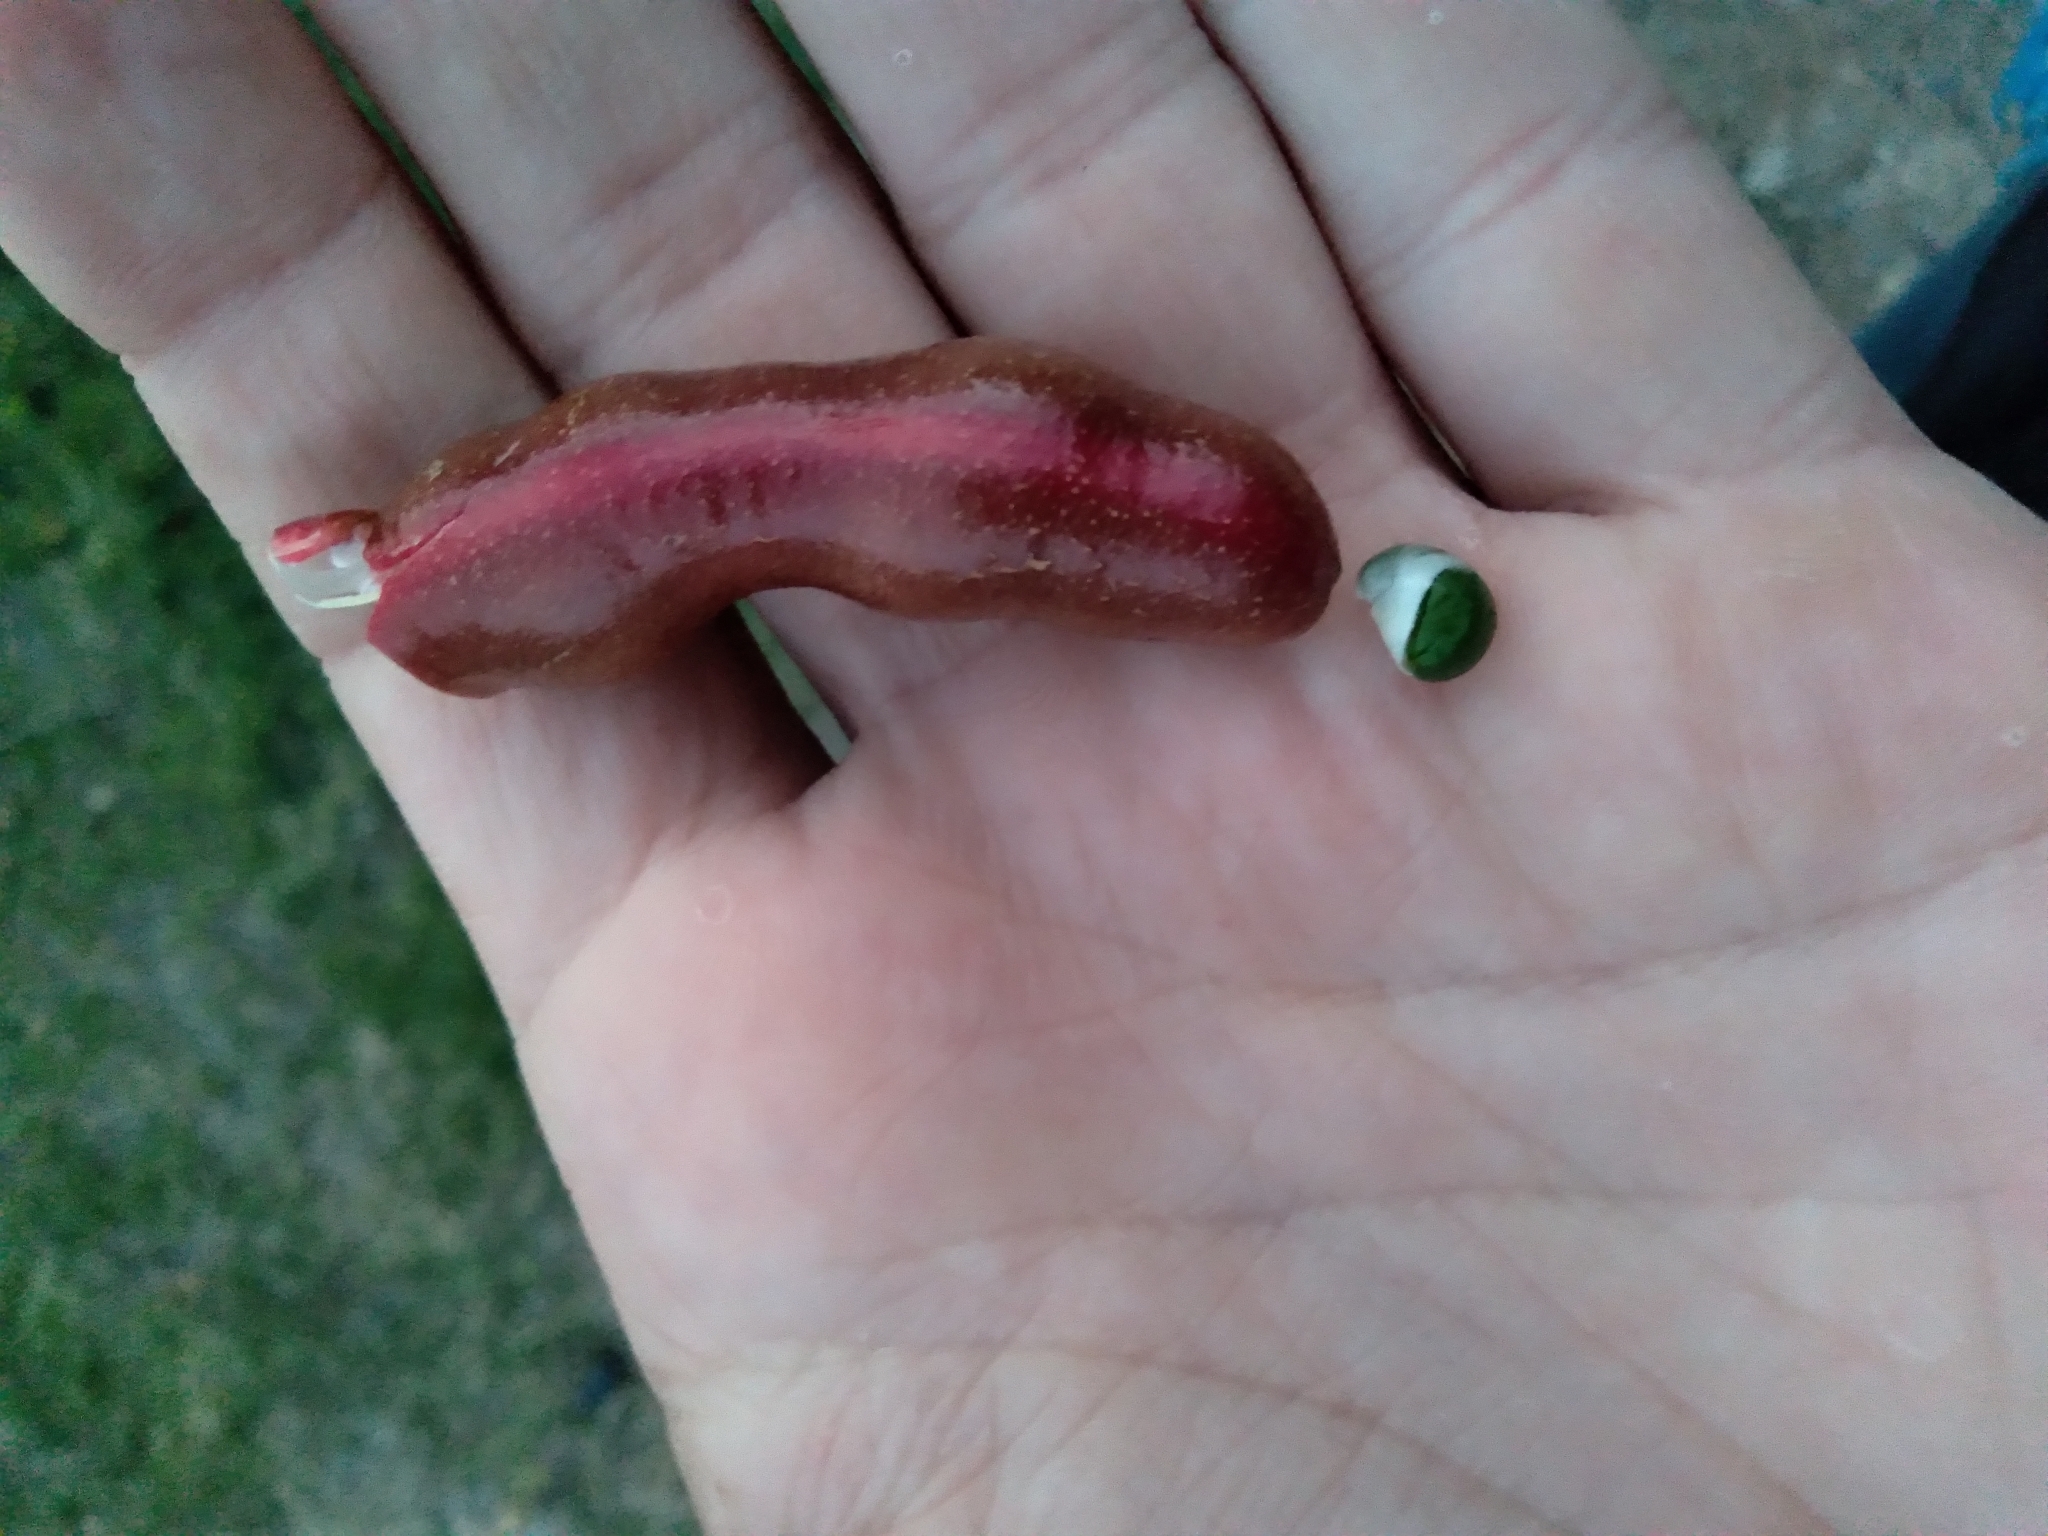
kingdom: Plantae
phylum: Tracheophyta
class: Magnoliopsida
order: Brassicales
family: Capparaceae
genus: Cynophalla
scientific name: Cynophalla flexuosa
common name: Capertree
